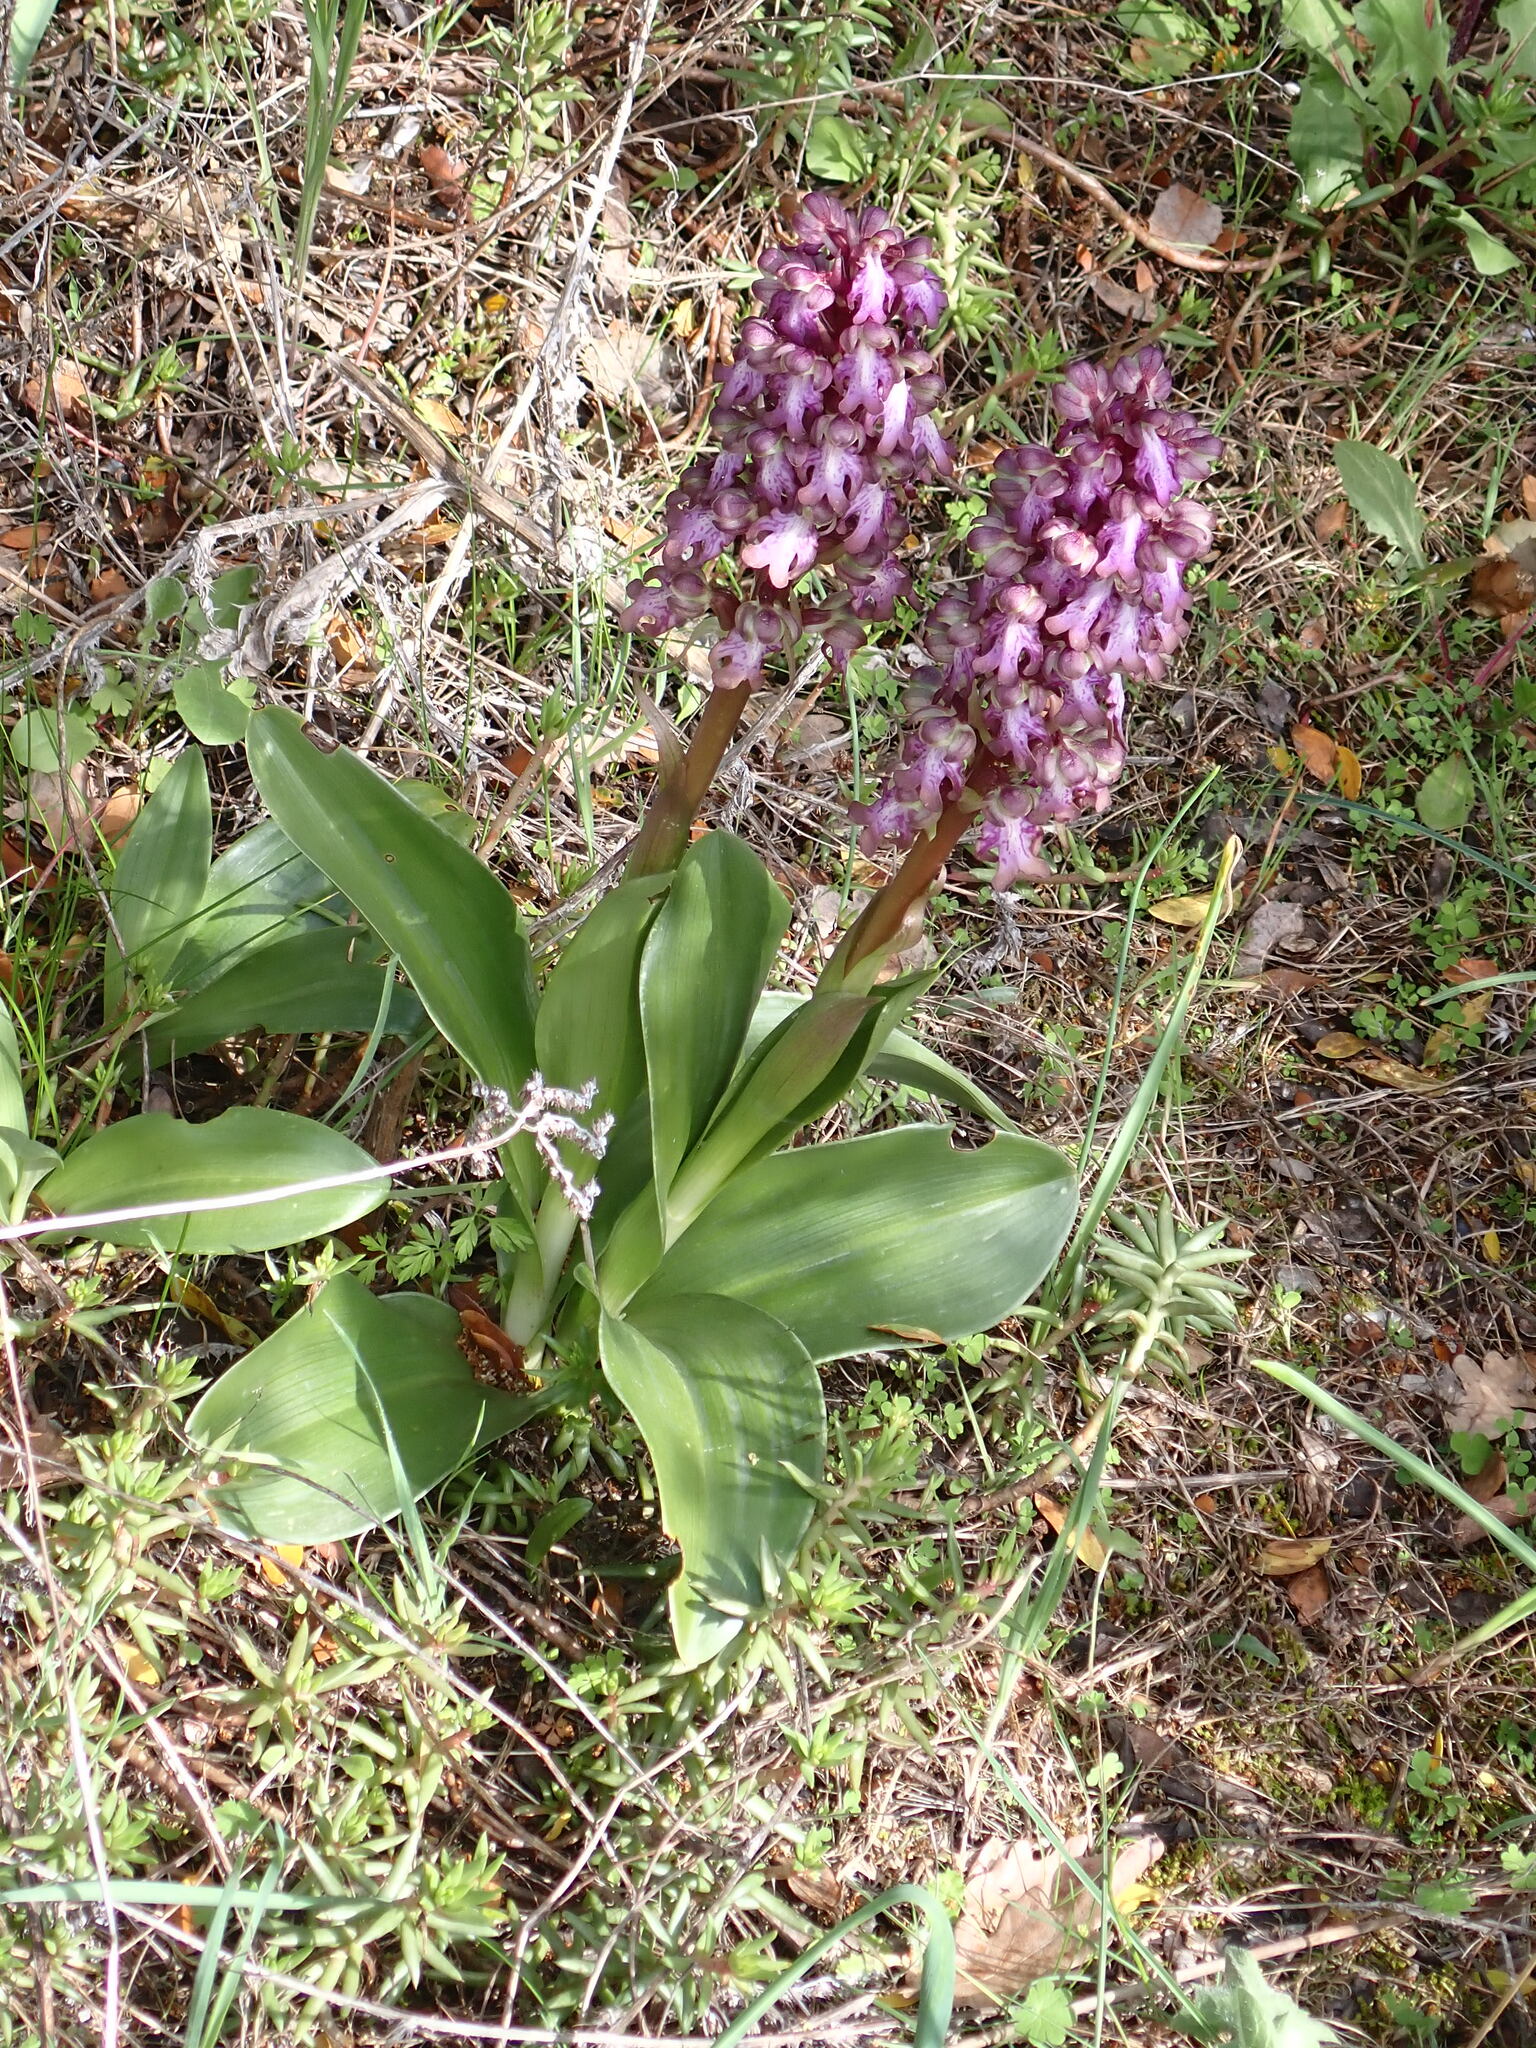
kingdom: Plantae
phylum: Tracheophyta
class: Liliopsida
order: Asparagales
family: Orchidaceae
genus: Himantoglossum
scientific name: Himantoglossum robertianum
